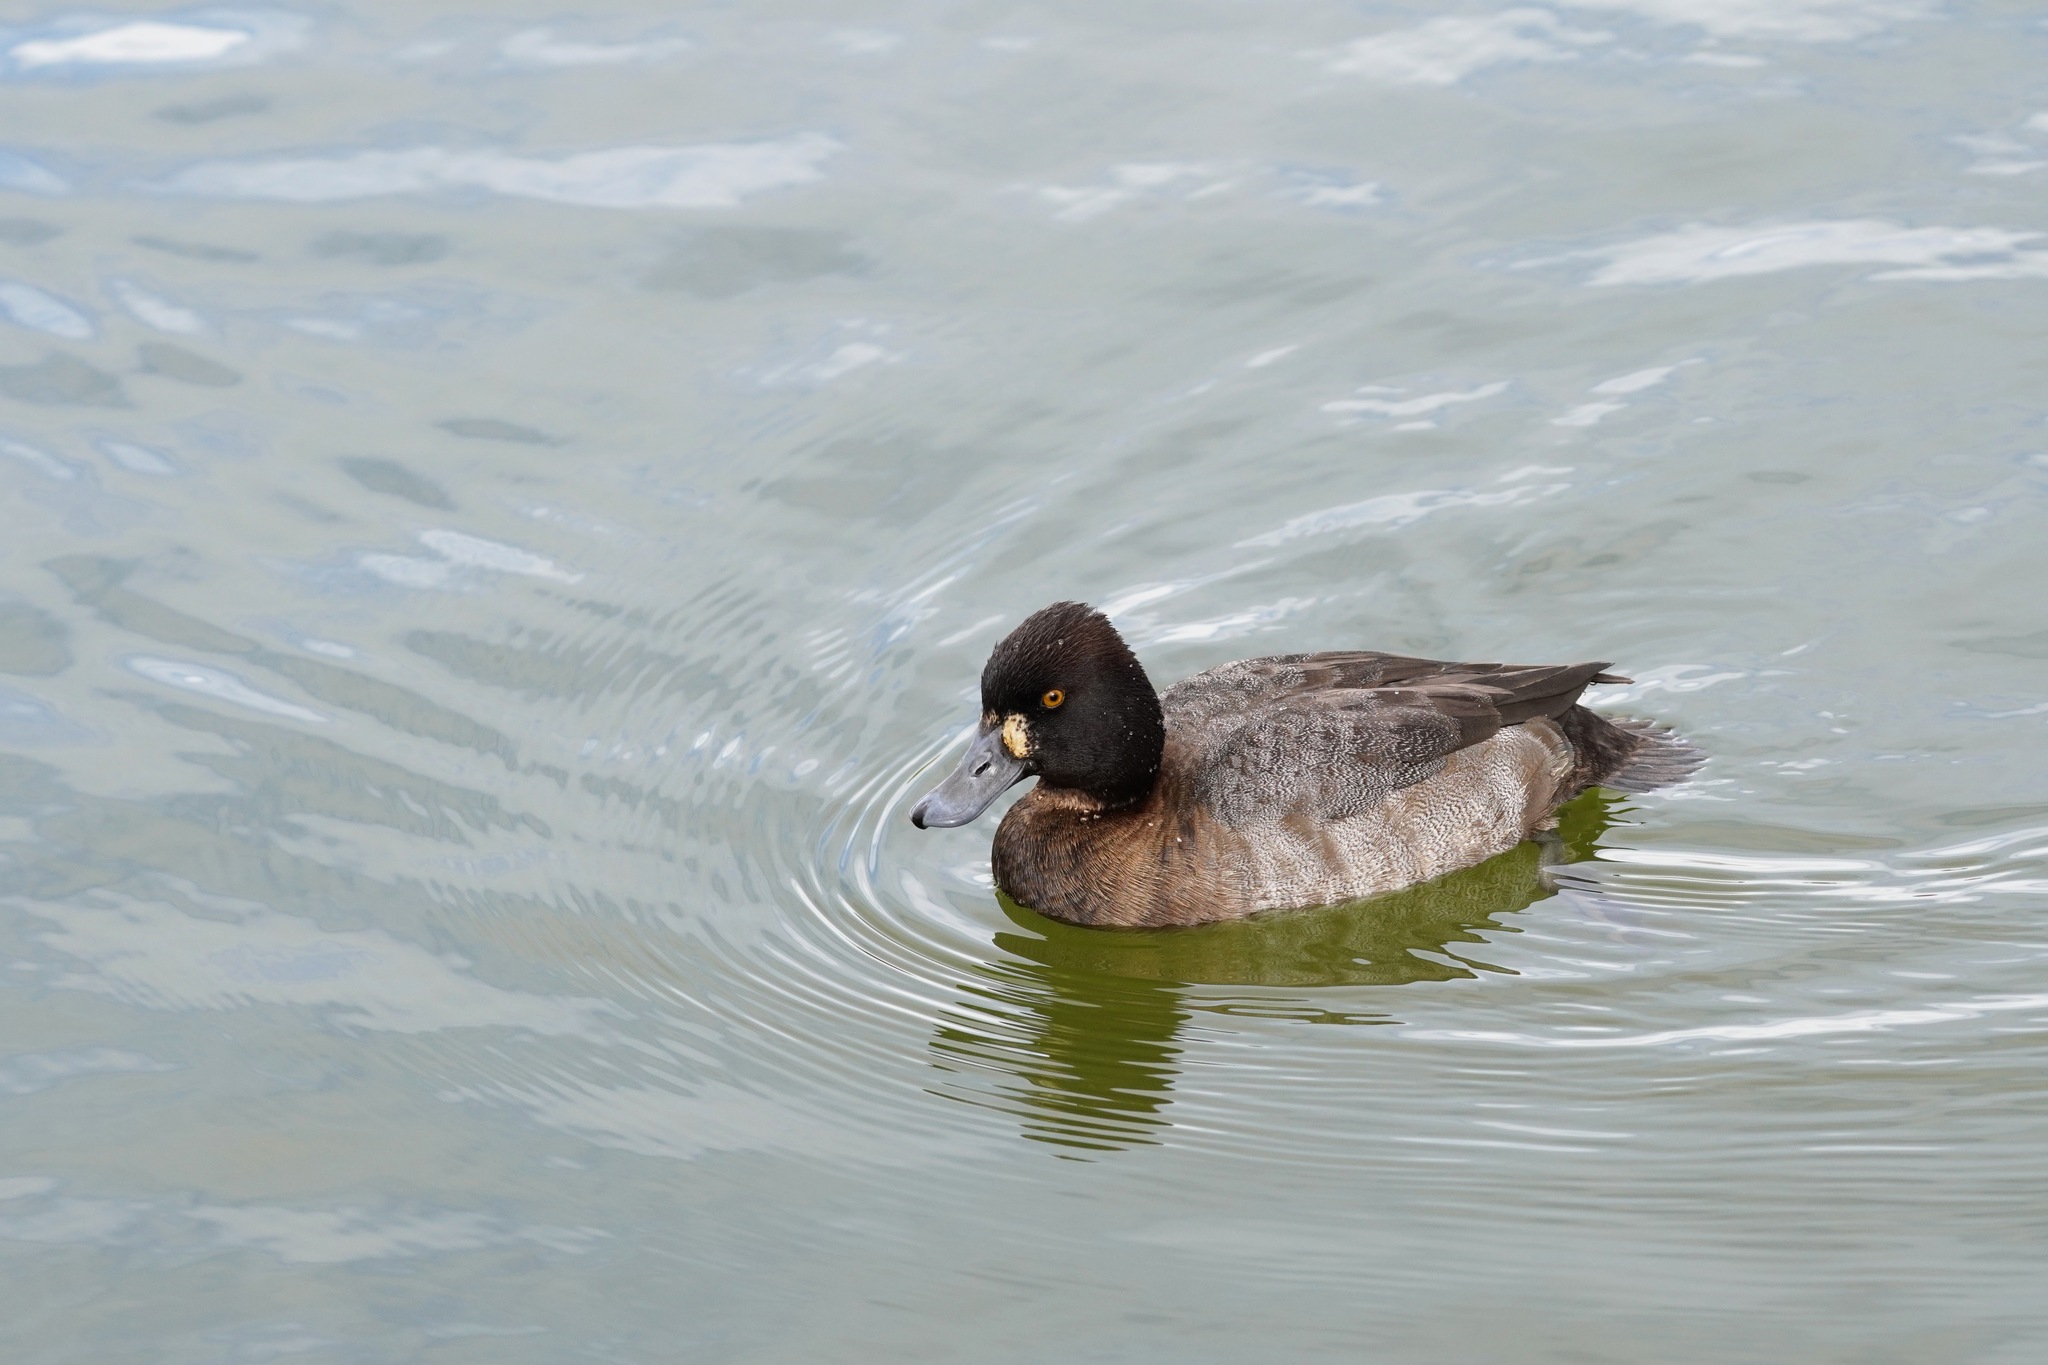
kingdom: Animalia
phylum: Chordata
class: Aves
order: Anseriformes
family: Anatidae
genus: Aythya
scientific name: Aythya affinis
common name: Lesser scaup
